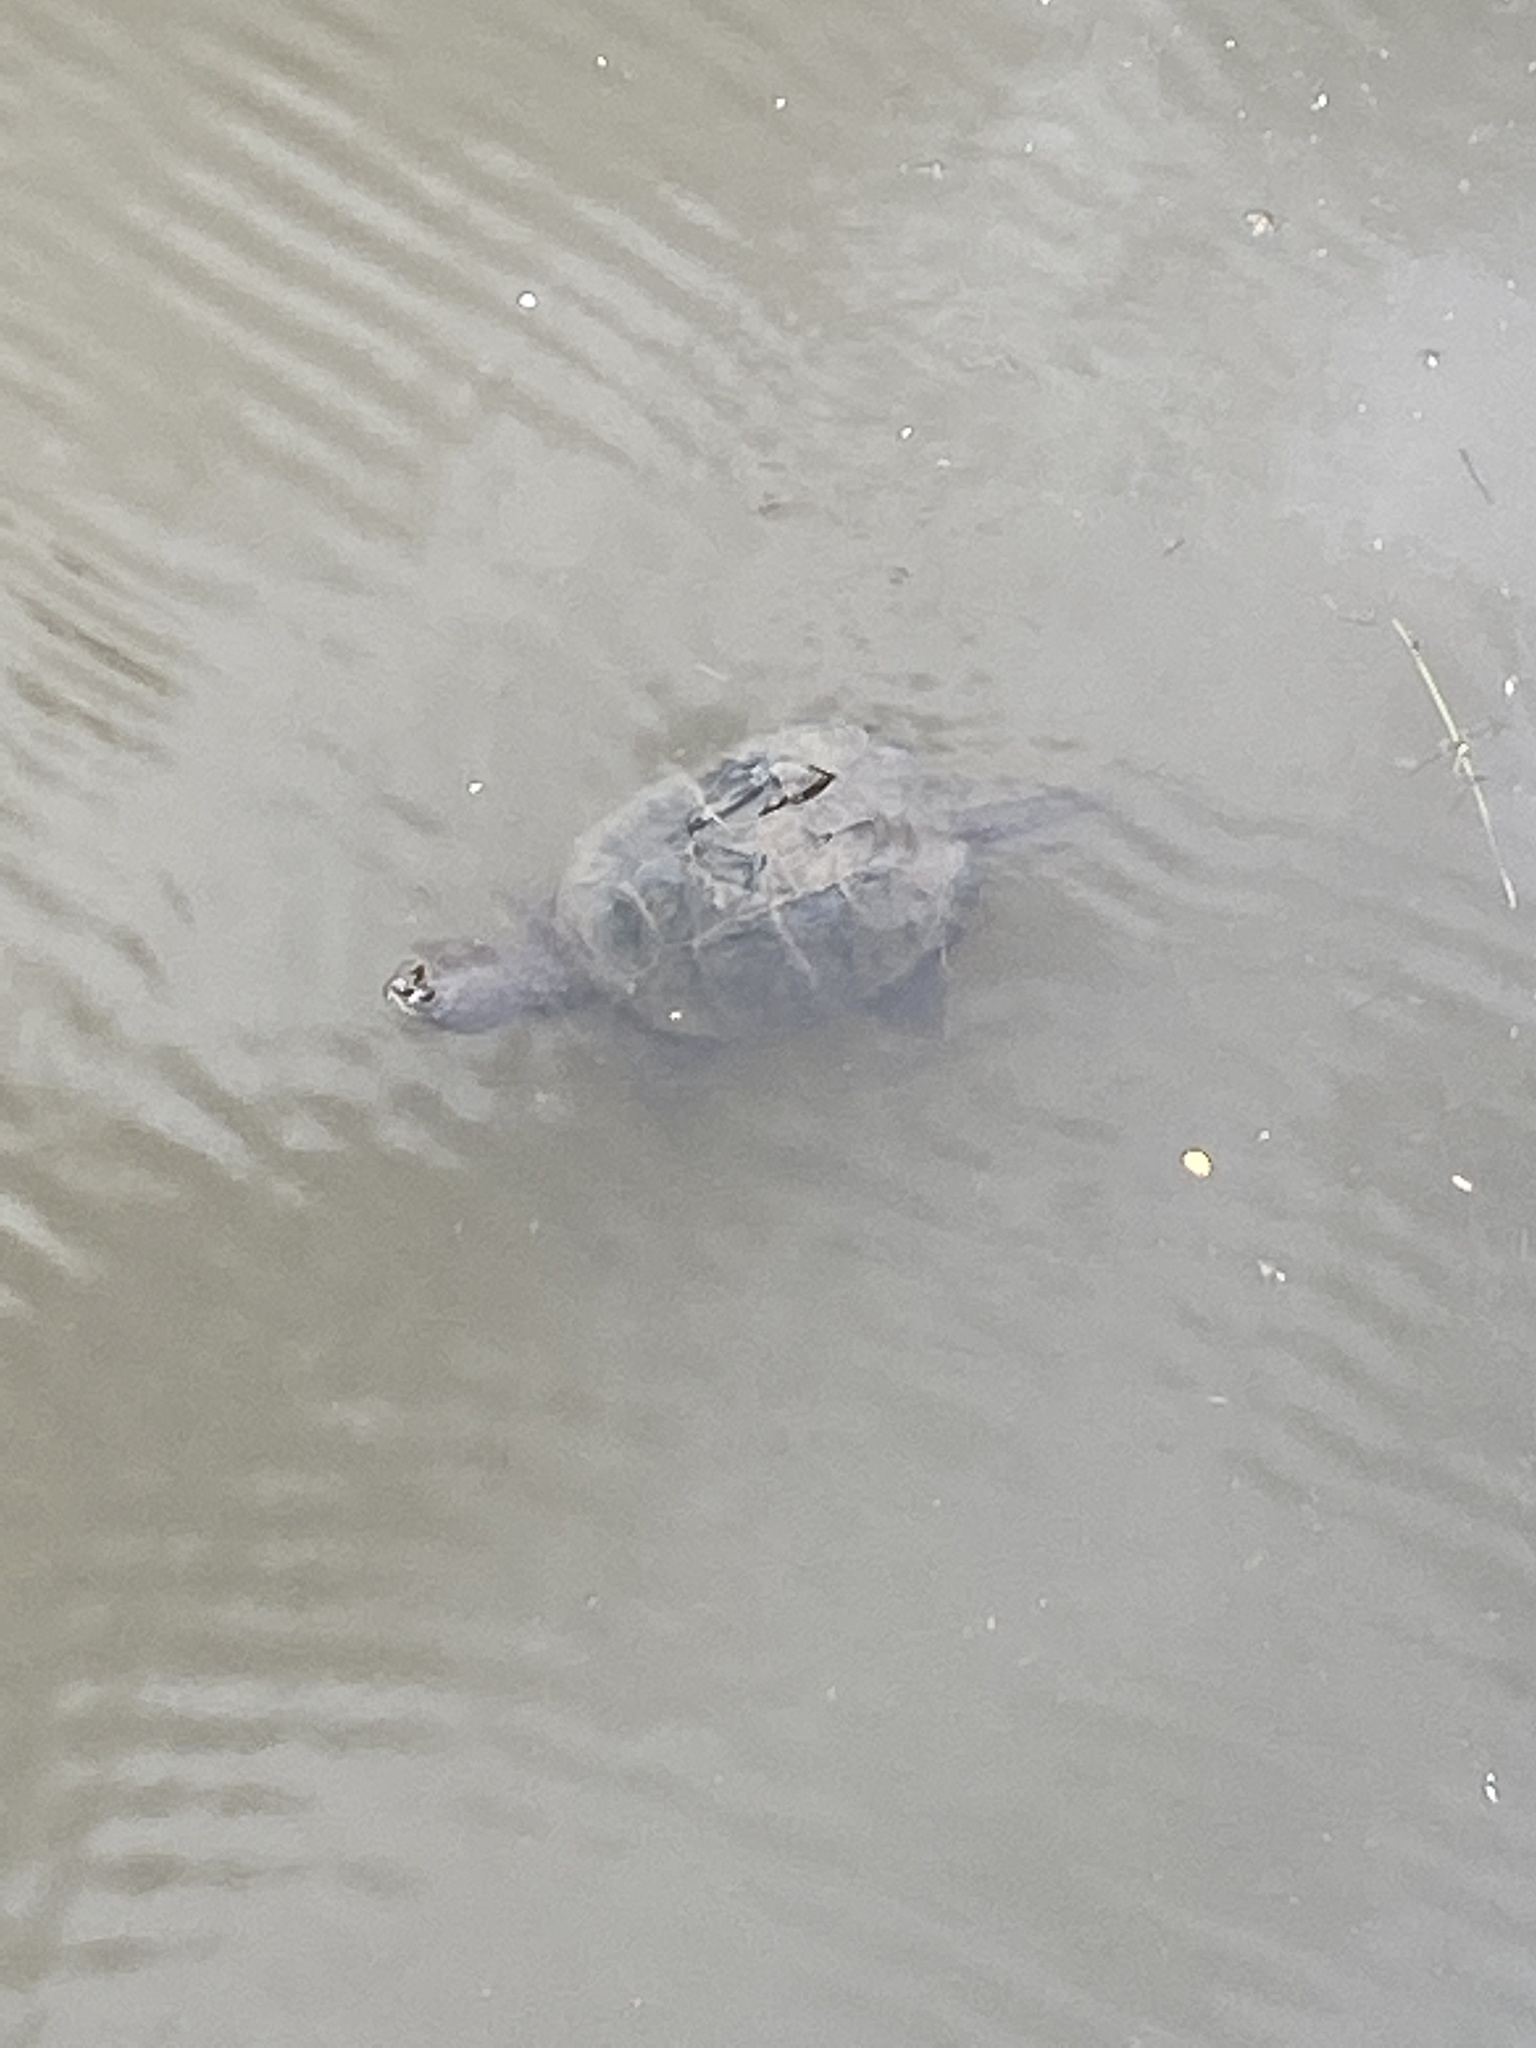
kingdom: Animalia
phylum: Chordata
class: Testudines
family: Chelydridae
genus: Chelydra
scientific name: Chelydra serpentina
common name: Common snapping turtle
